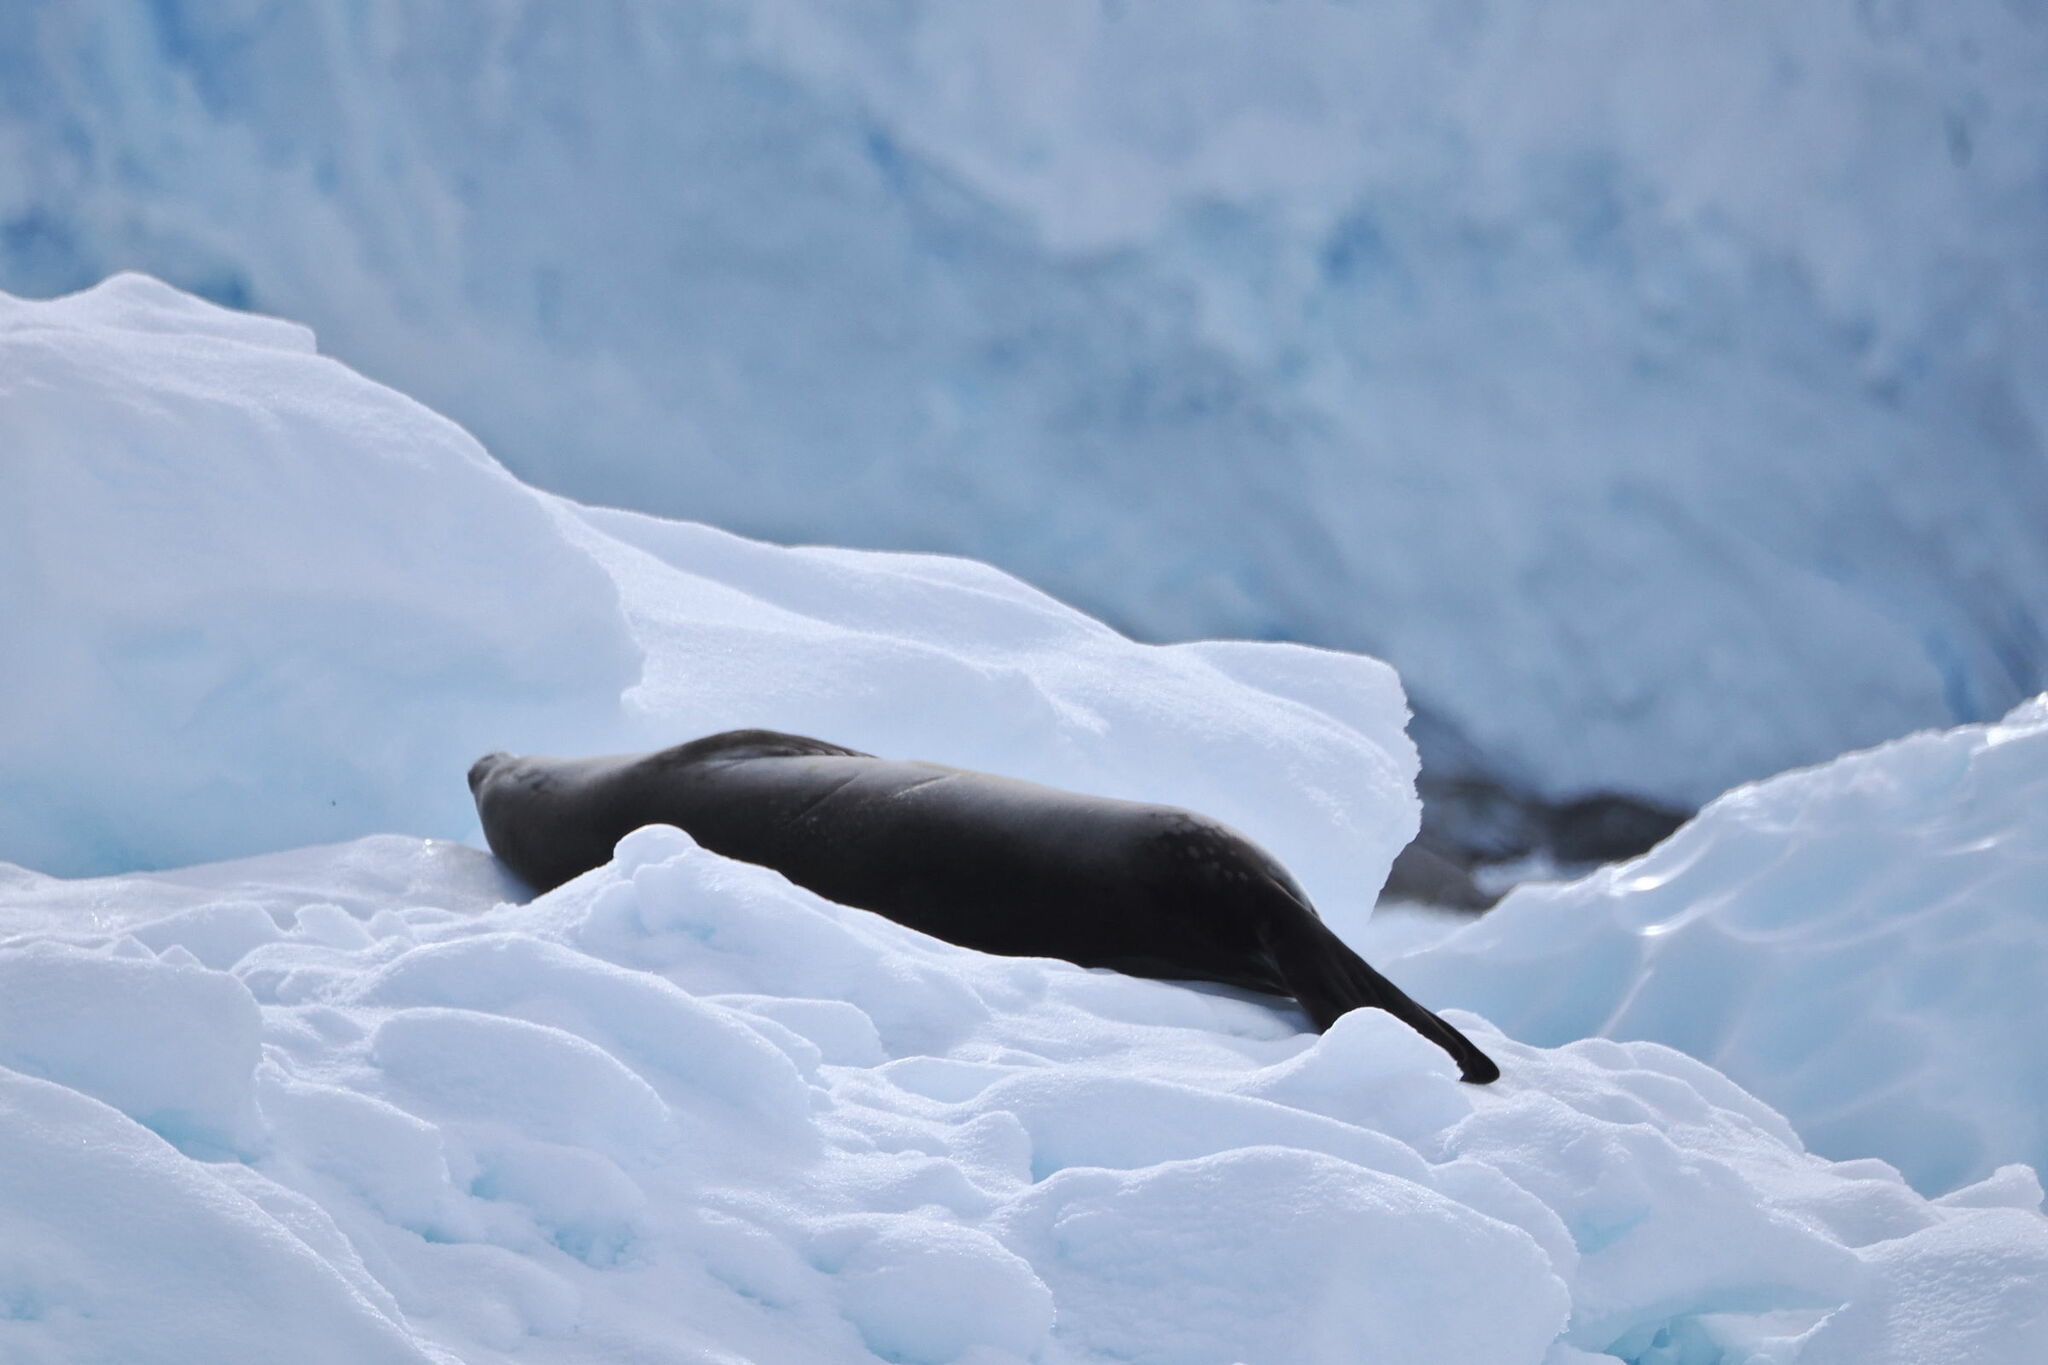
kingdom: Animalia
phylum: Chordata
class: Mammalia
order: Carnivora
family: Phocidae
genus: Lobodon
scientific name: Lobodon carcinophaga
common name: Crabeater seal
